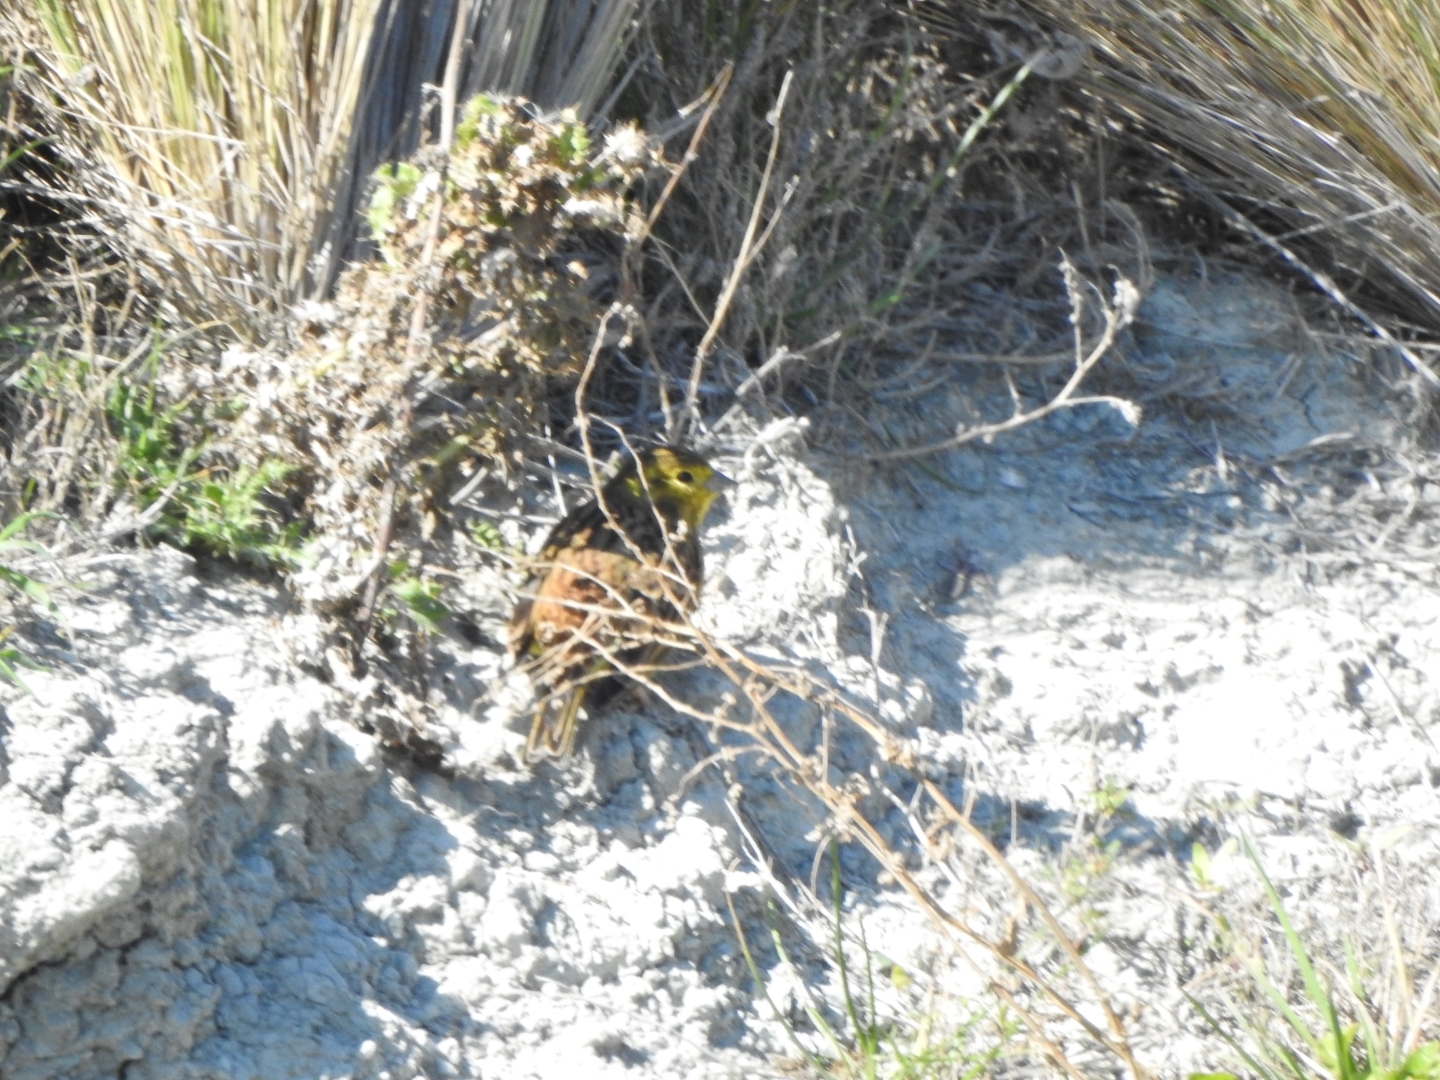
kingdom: Animalia
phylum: Chordata
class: Aves
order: Passeriformes
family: Emberizidae
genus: Emberiza
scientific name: Emberiza citrinella
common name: Yellowhammer
